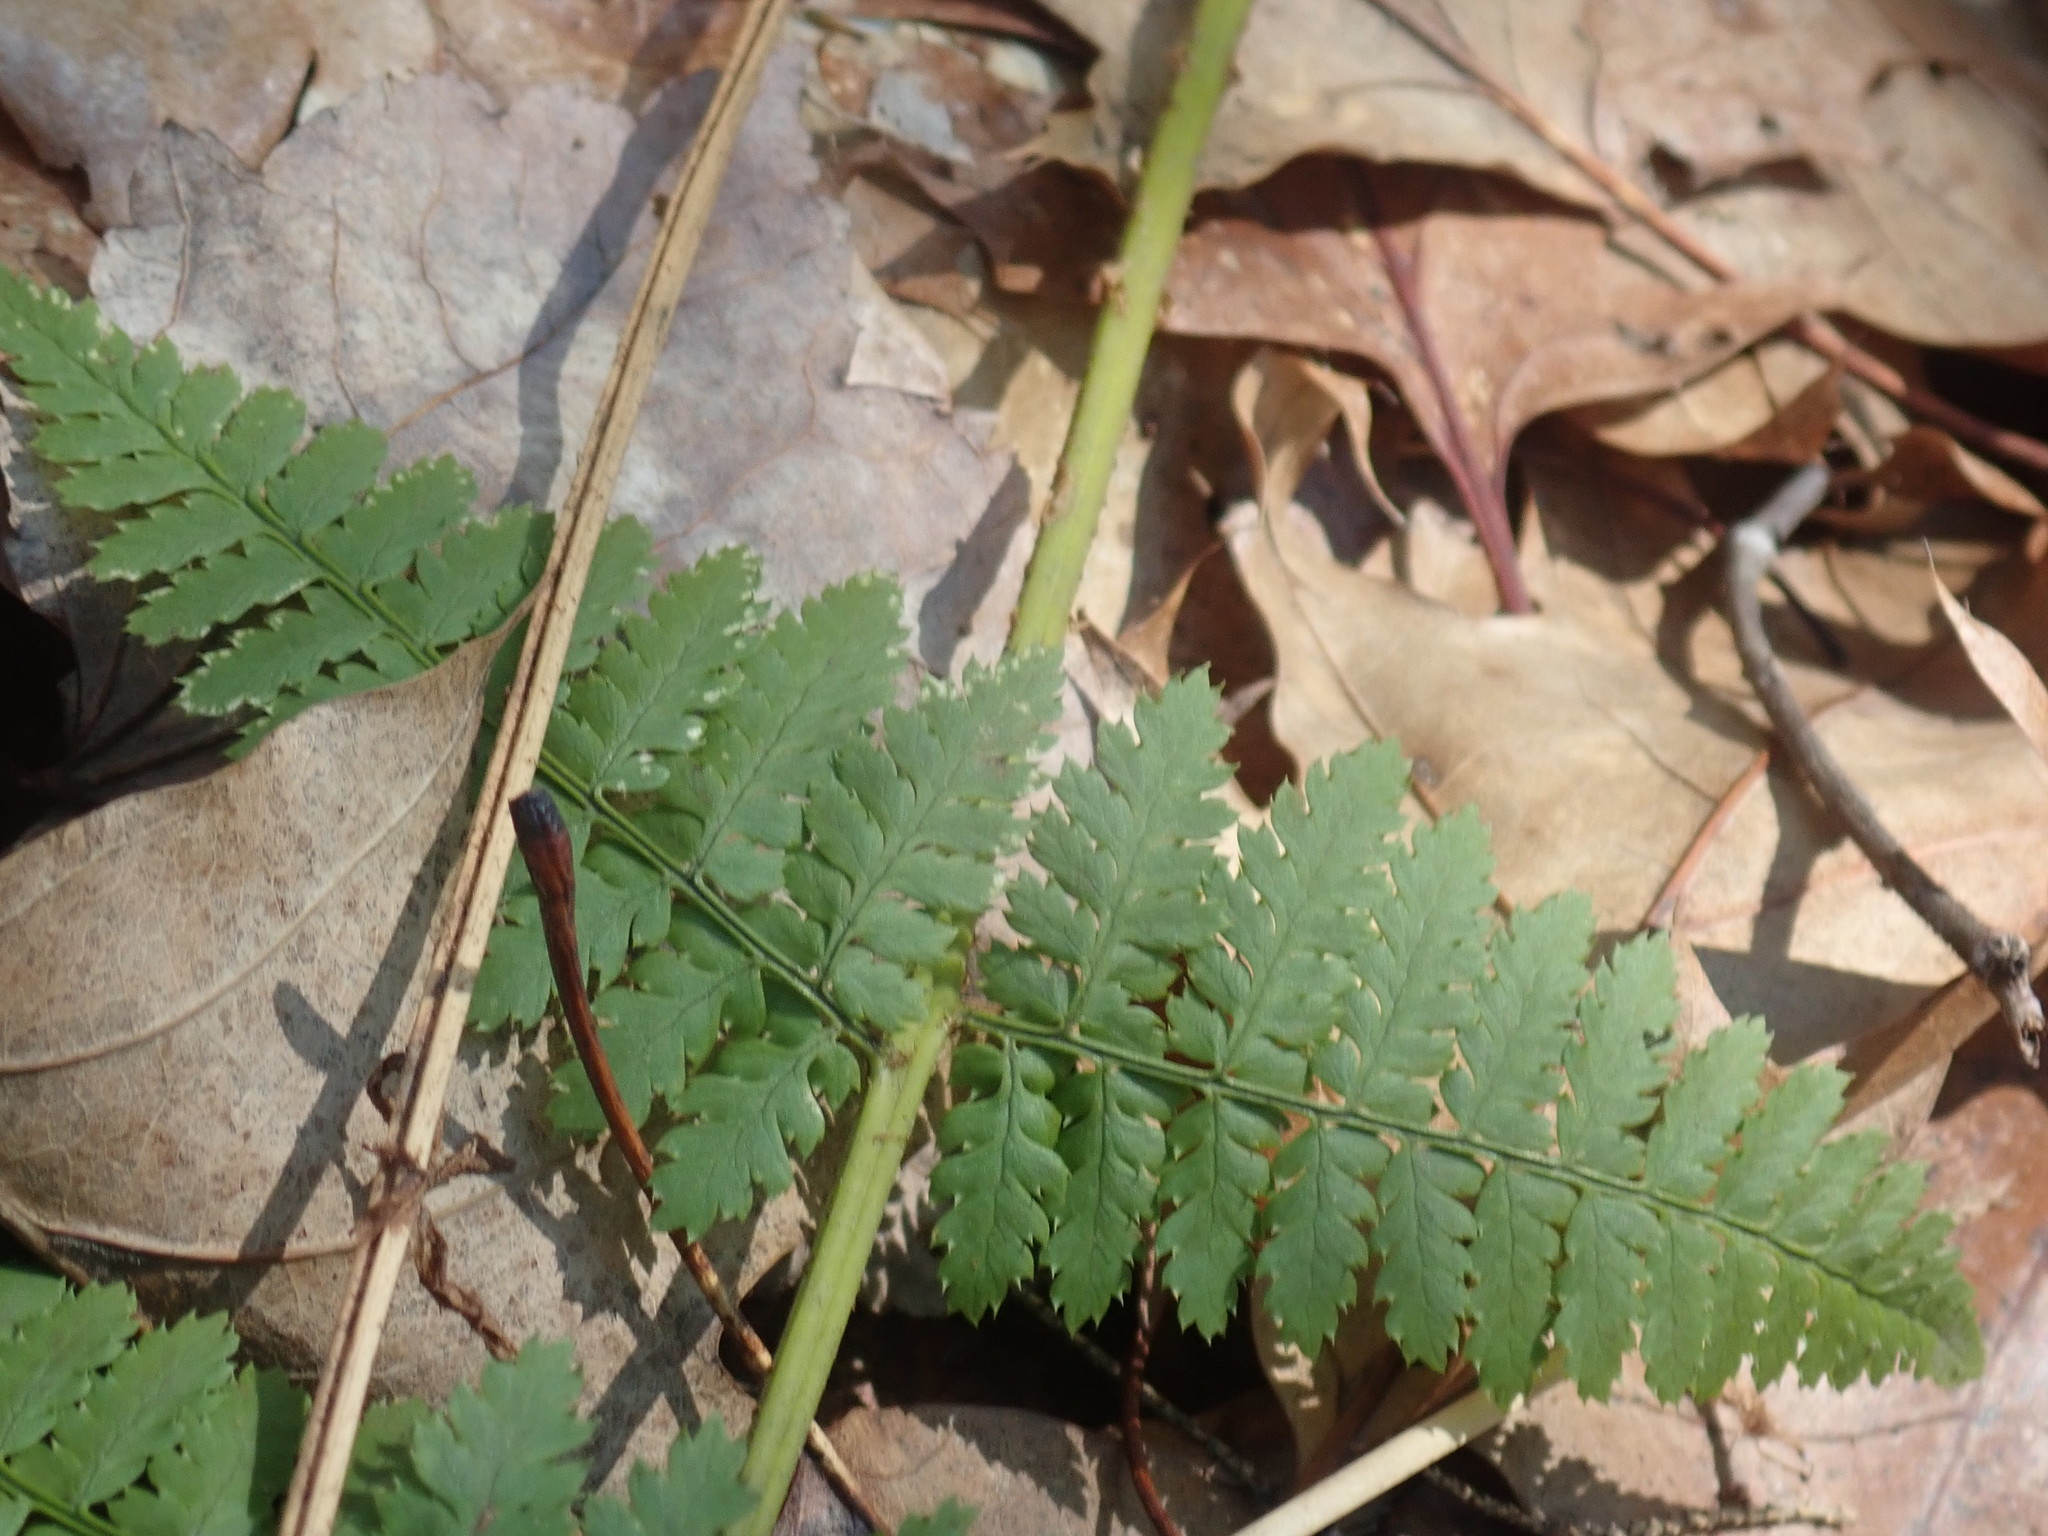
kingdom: Plantae
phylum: Tracheophyta
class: Polypodiopsida
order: Polypodiales
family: Dryopteridaceae
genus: Dryopteris
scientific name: Dryopteris intermedia
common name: Evergreen wood fern
